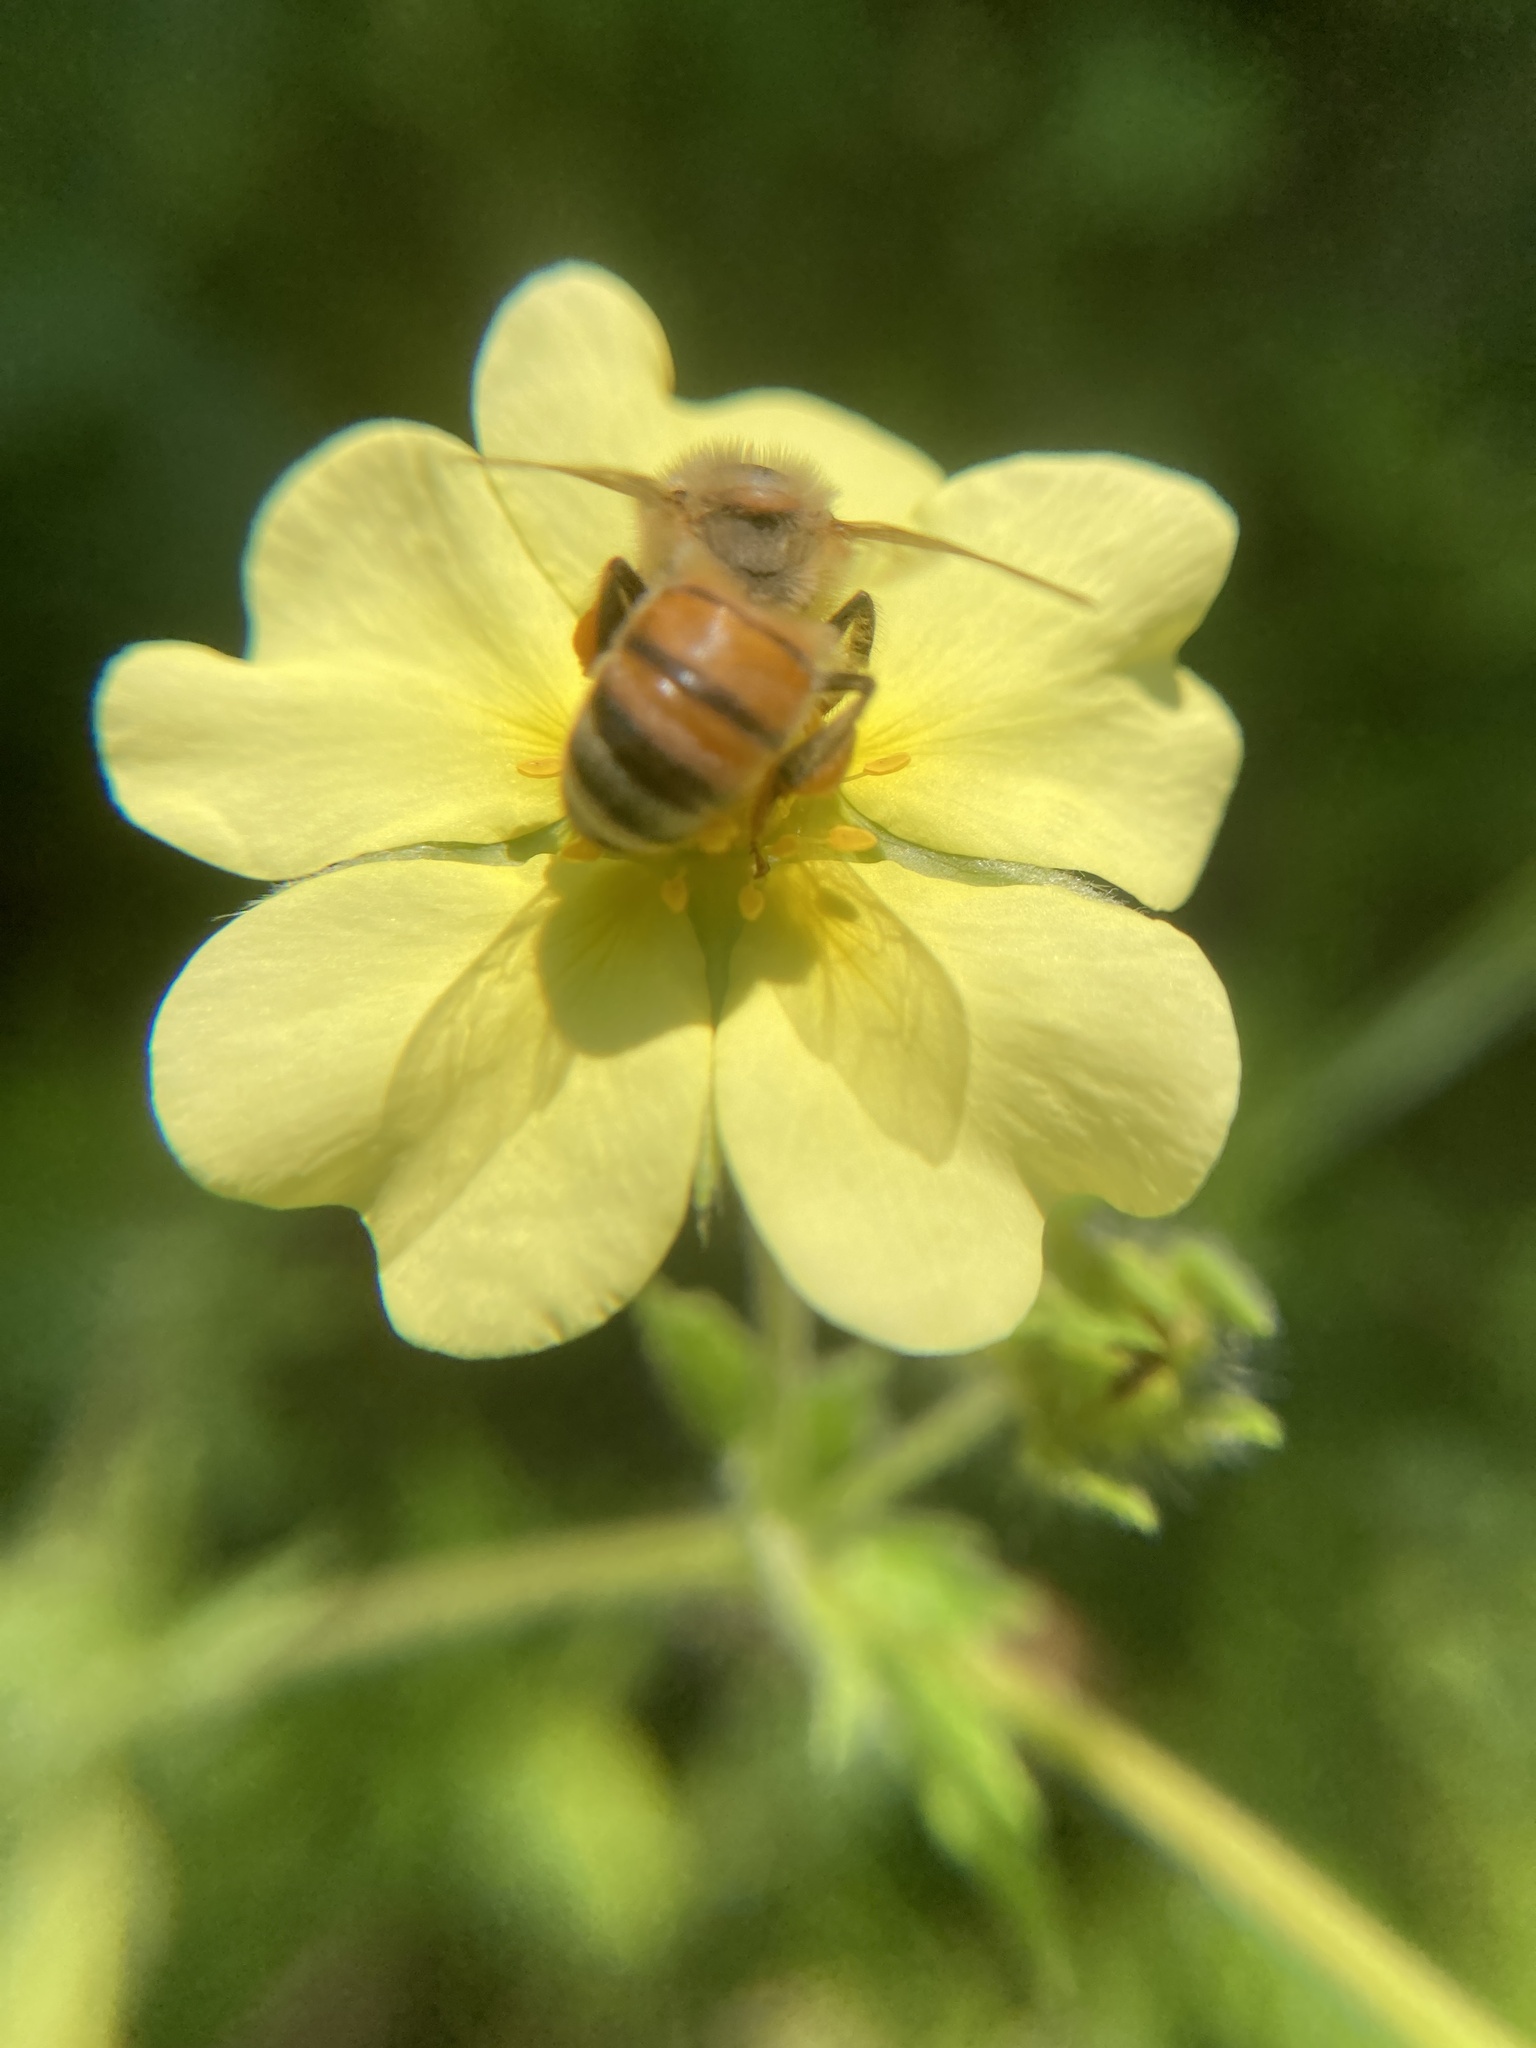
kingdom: Animalia
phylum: Arthropoda
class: Insecta
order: Hymenoptera
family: Apidae
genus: Apis
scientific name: Apis mellifera
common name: Honey bee
